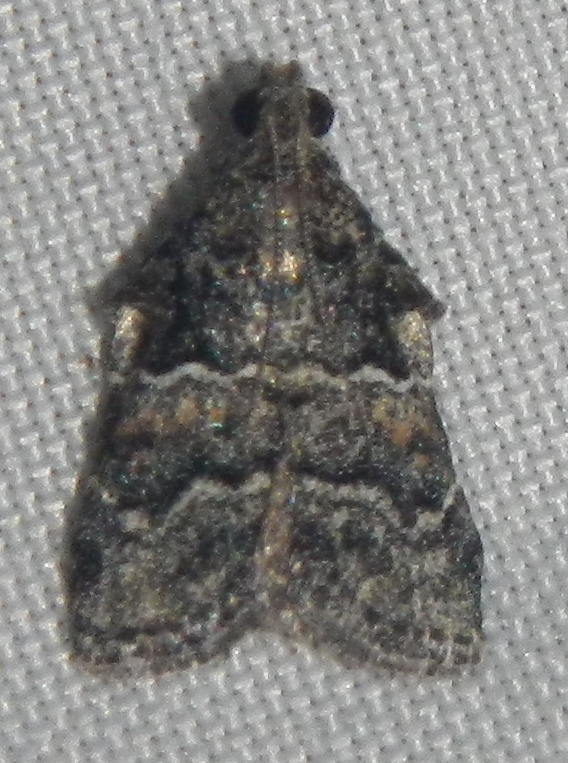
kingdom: Animalia
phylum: Arthropoda
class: Insecta
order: Lepidoptera
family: Pyralidae
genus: Satole
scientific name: Satole ligniperdalis
